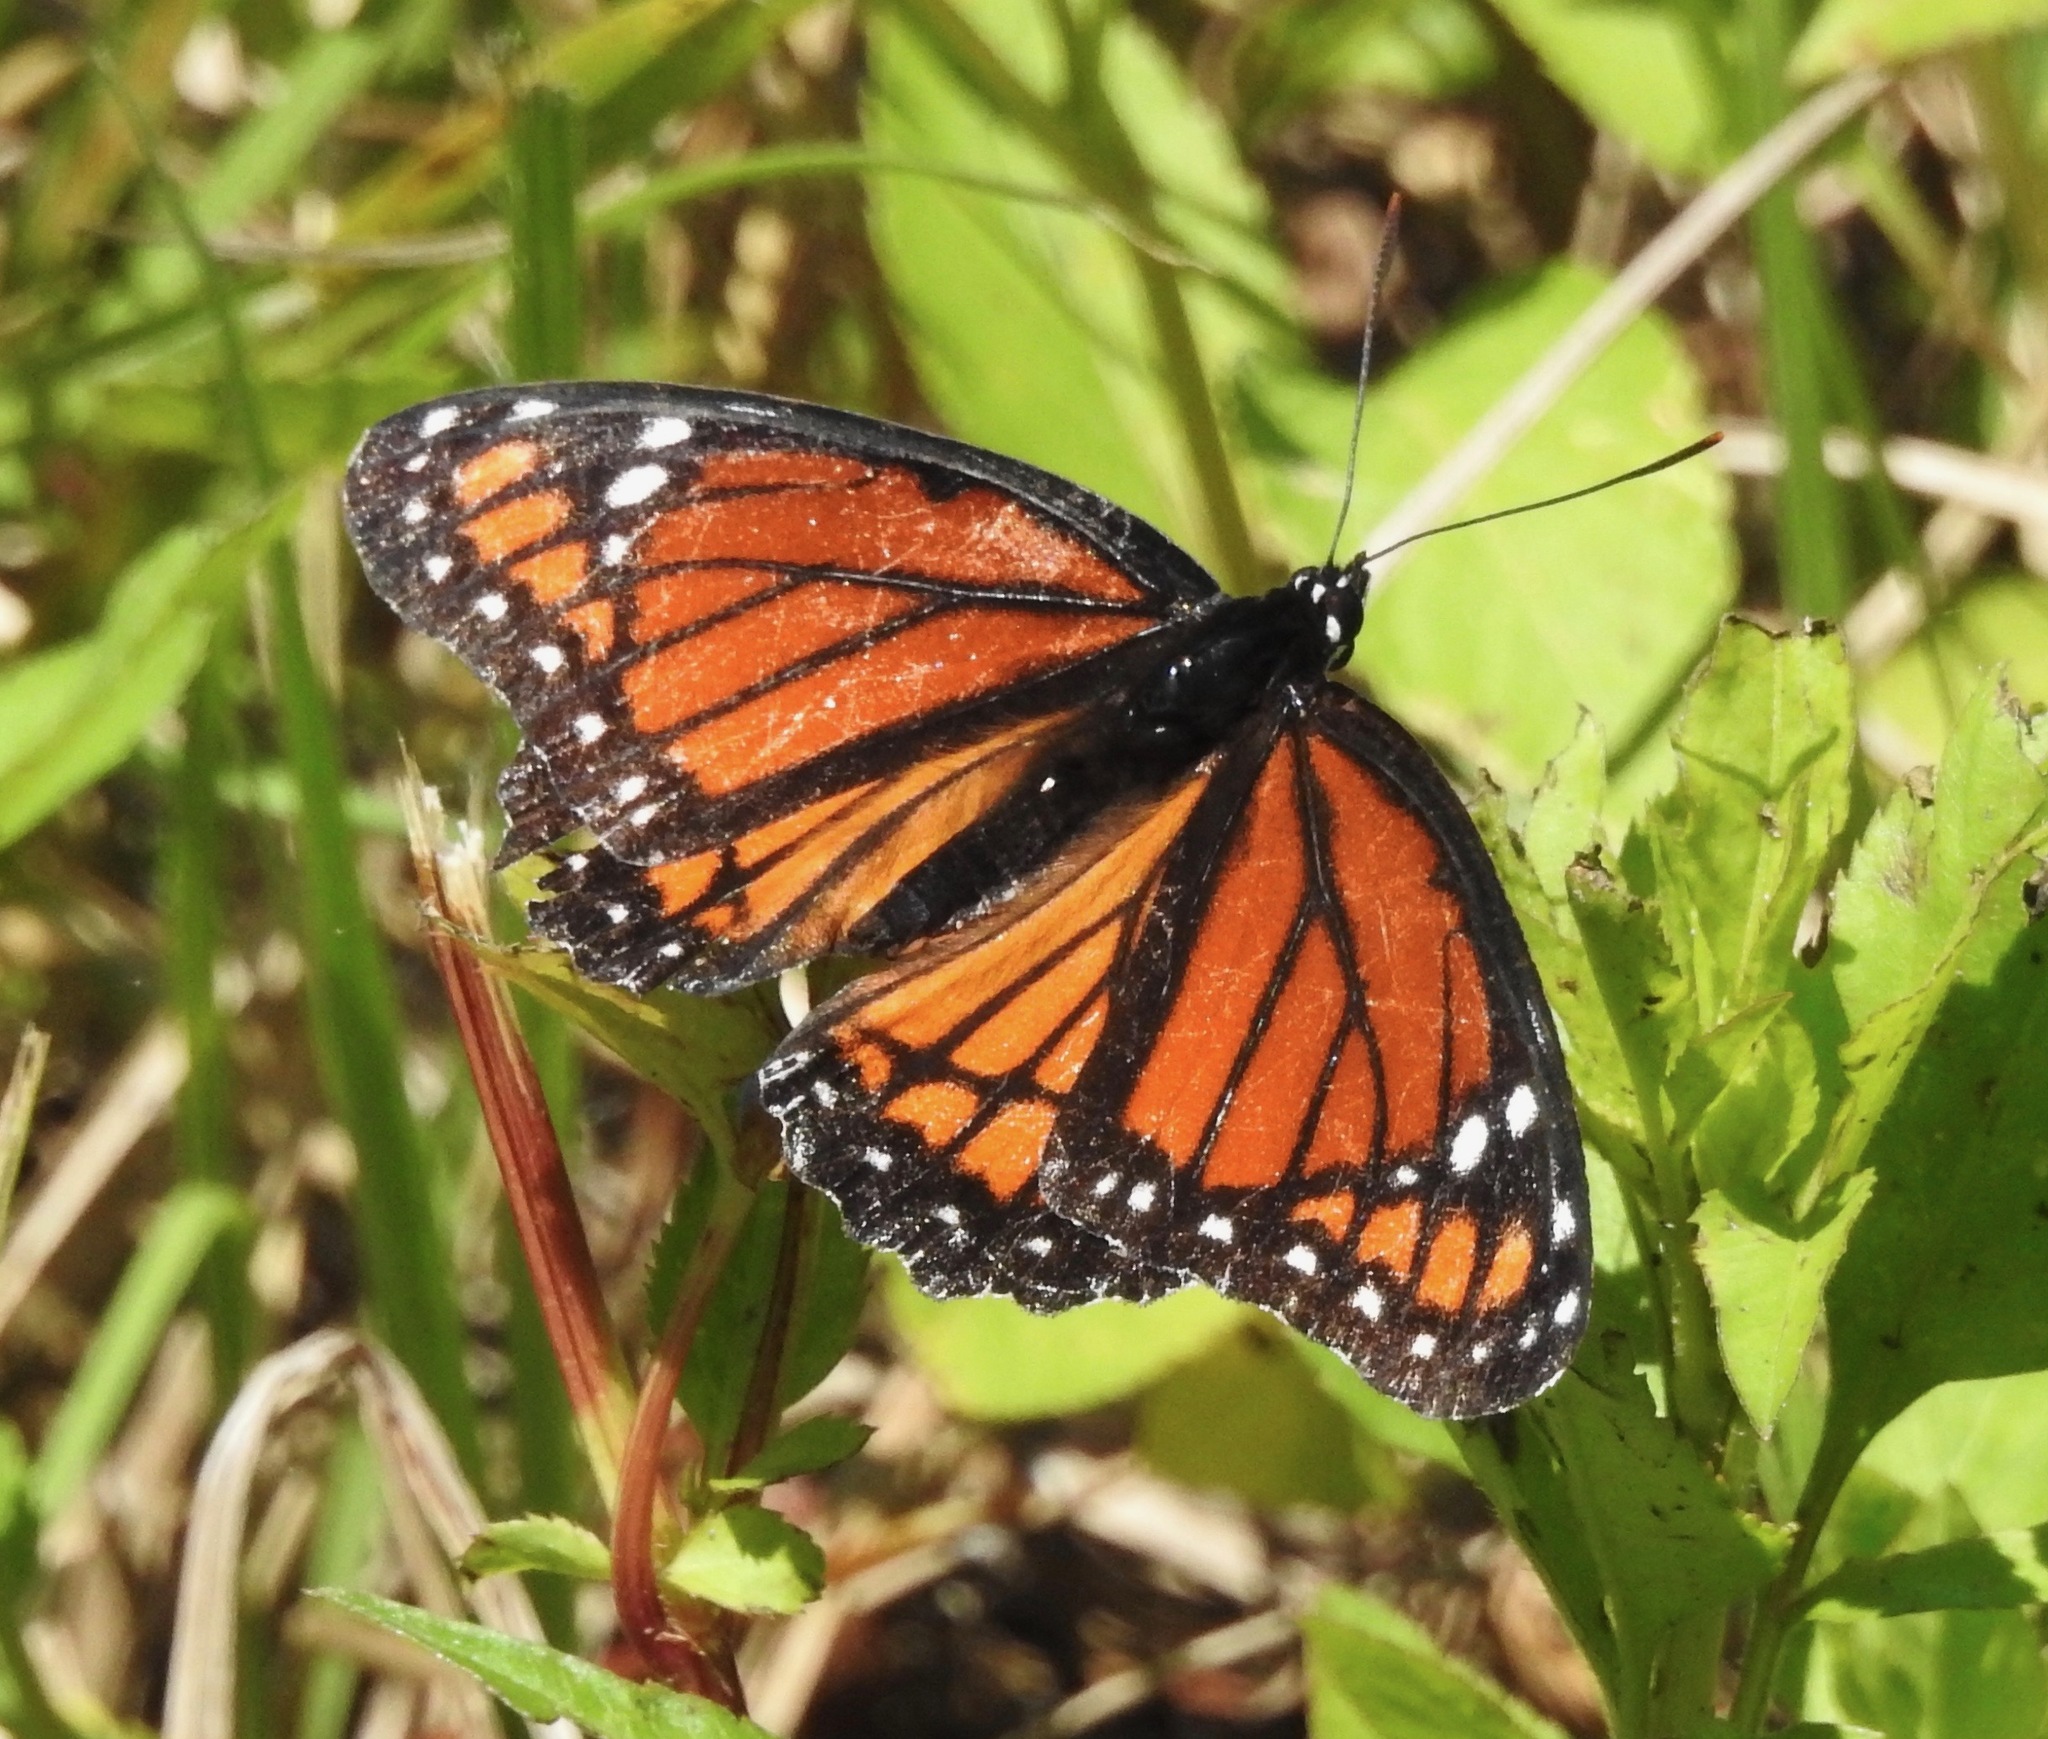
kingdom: Animalia
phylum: Arthropoda
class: Insecta
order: Lepidoptera
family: Nymphalidae
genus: Limenitis
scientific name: Limenitis archippus
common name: Viceroy
